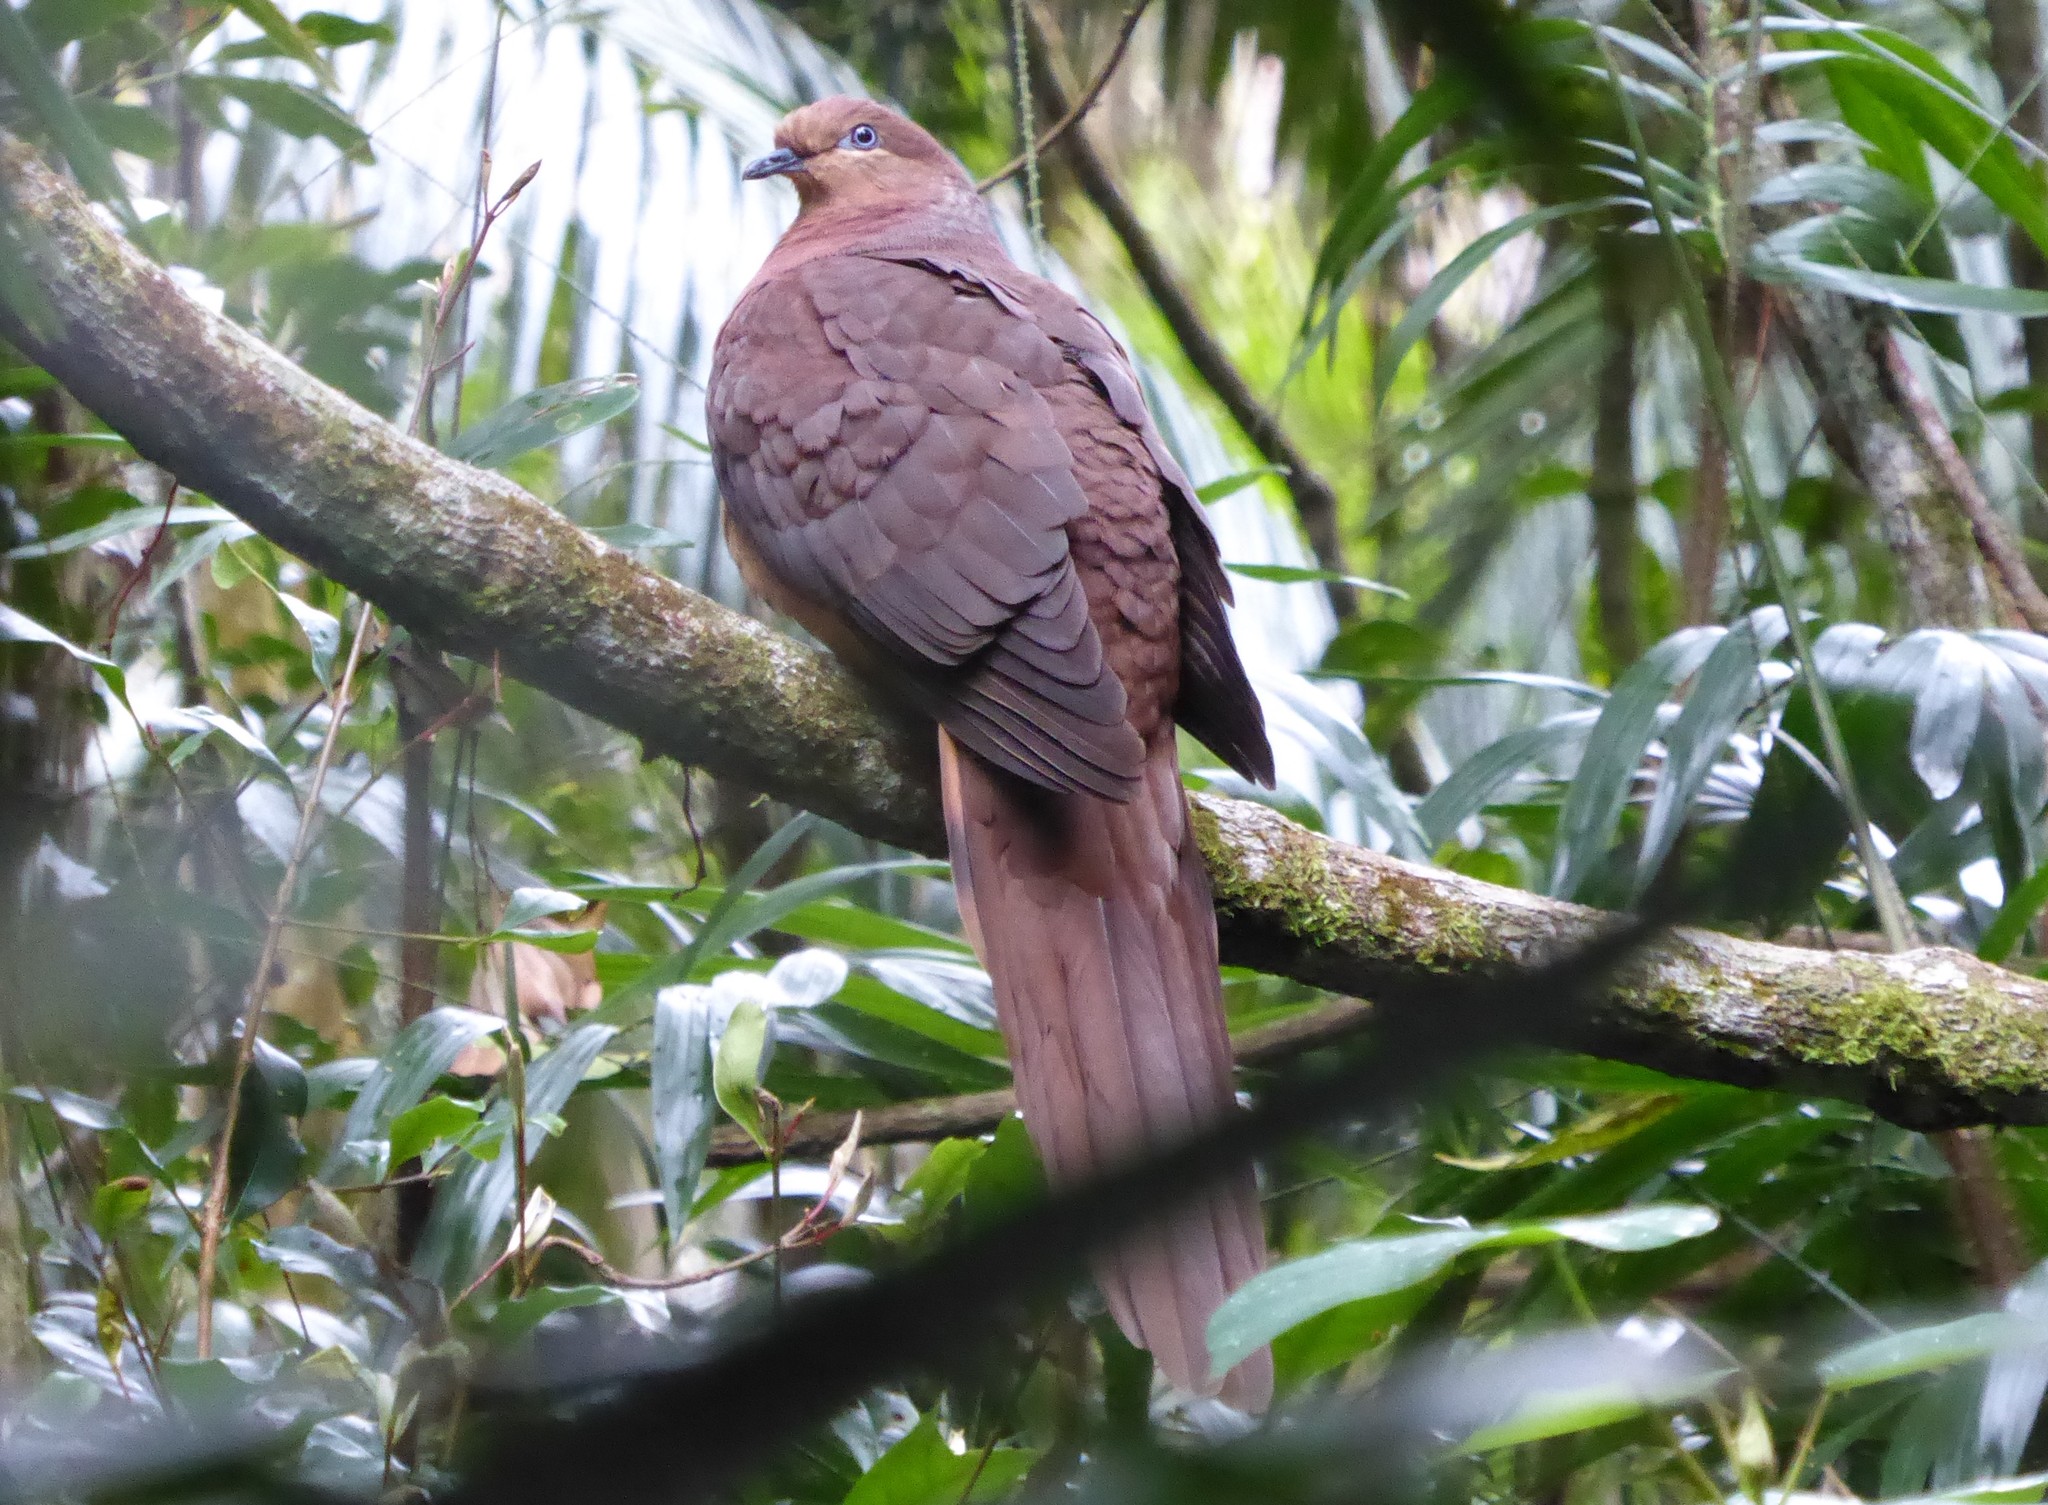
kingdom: Animalia
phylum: Chordata
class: Aves
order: Columbiformes
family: Columbidae
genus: Macropygia
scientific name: Macropygia phasianella
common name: Brown cuckoo-dove
